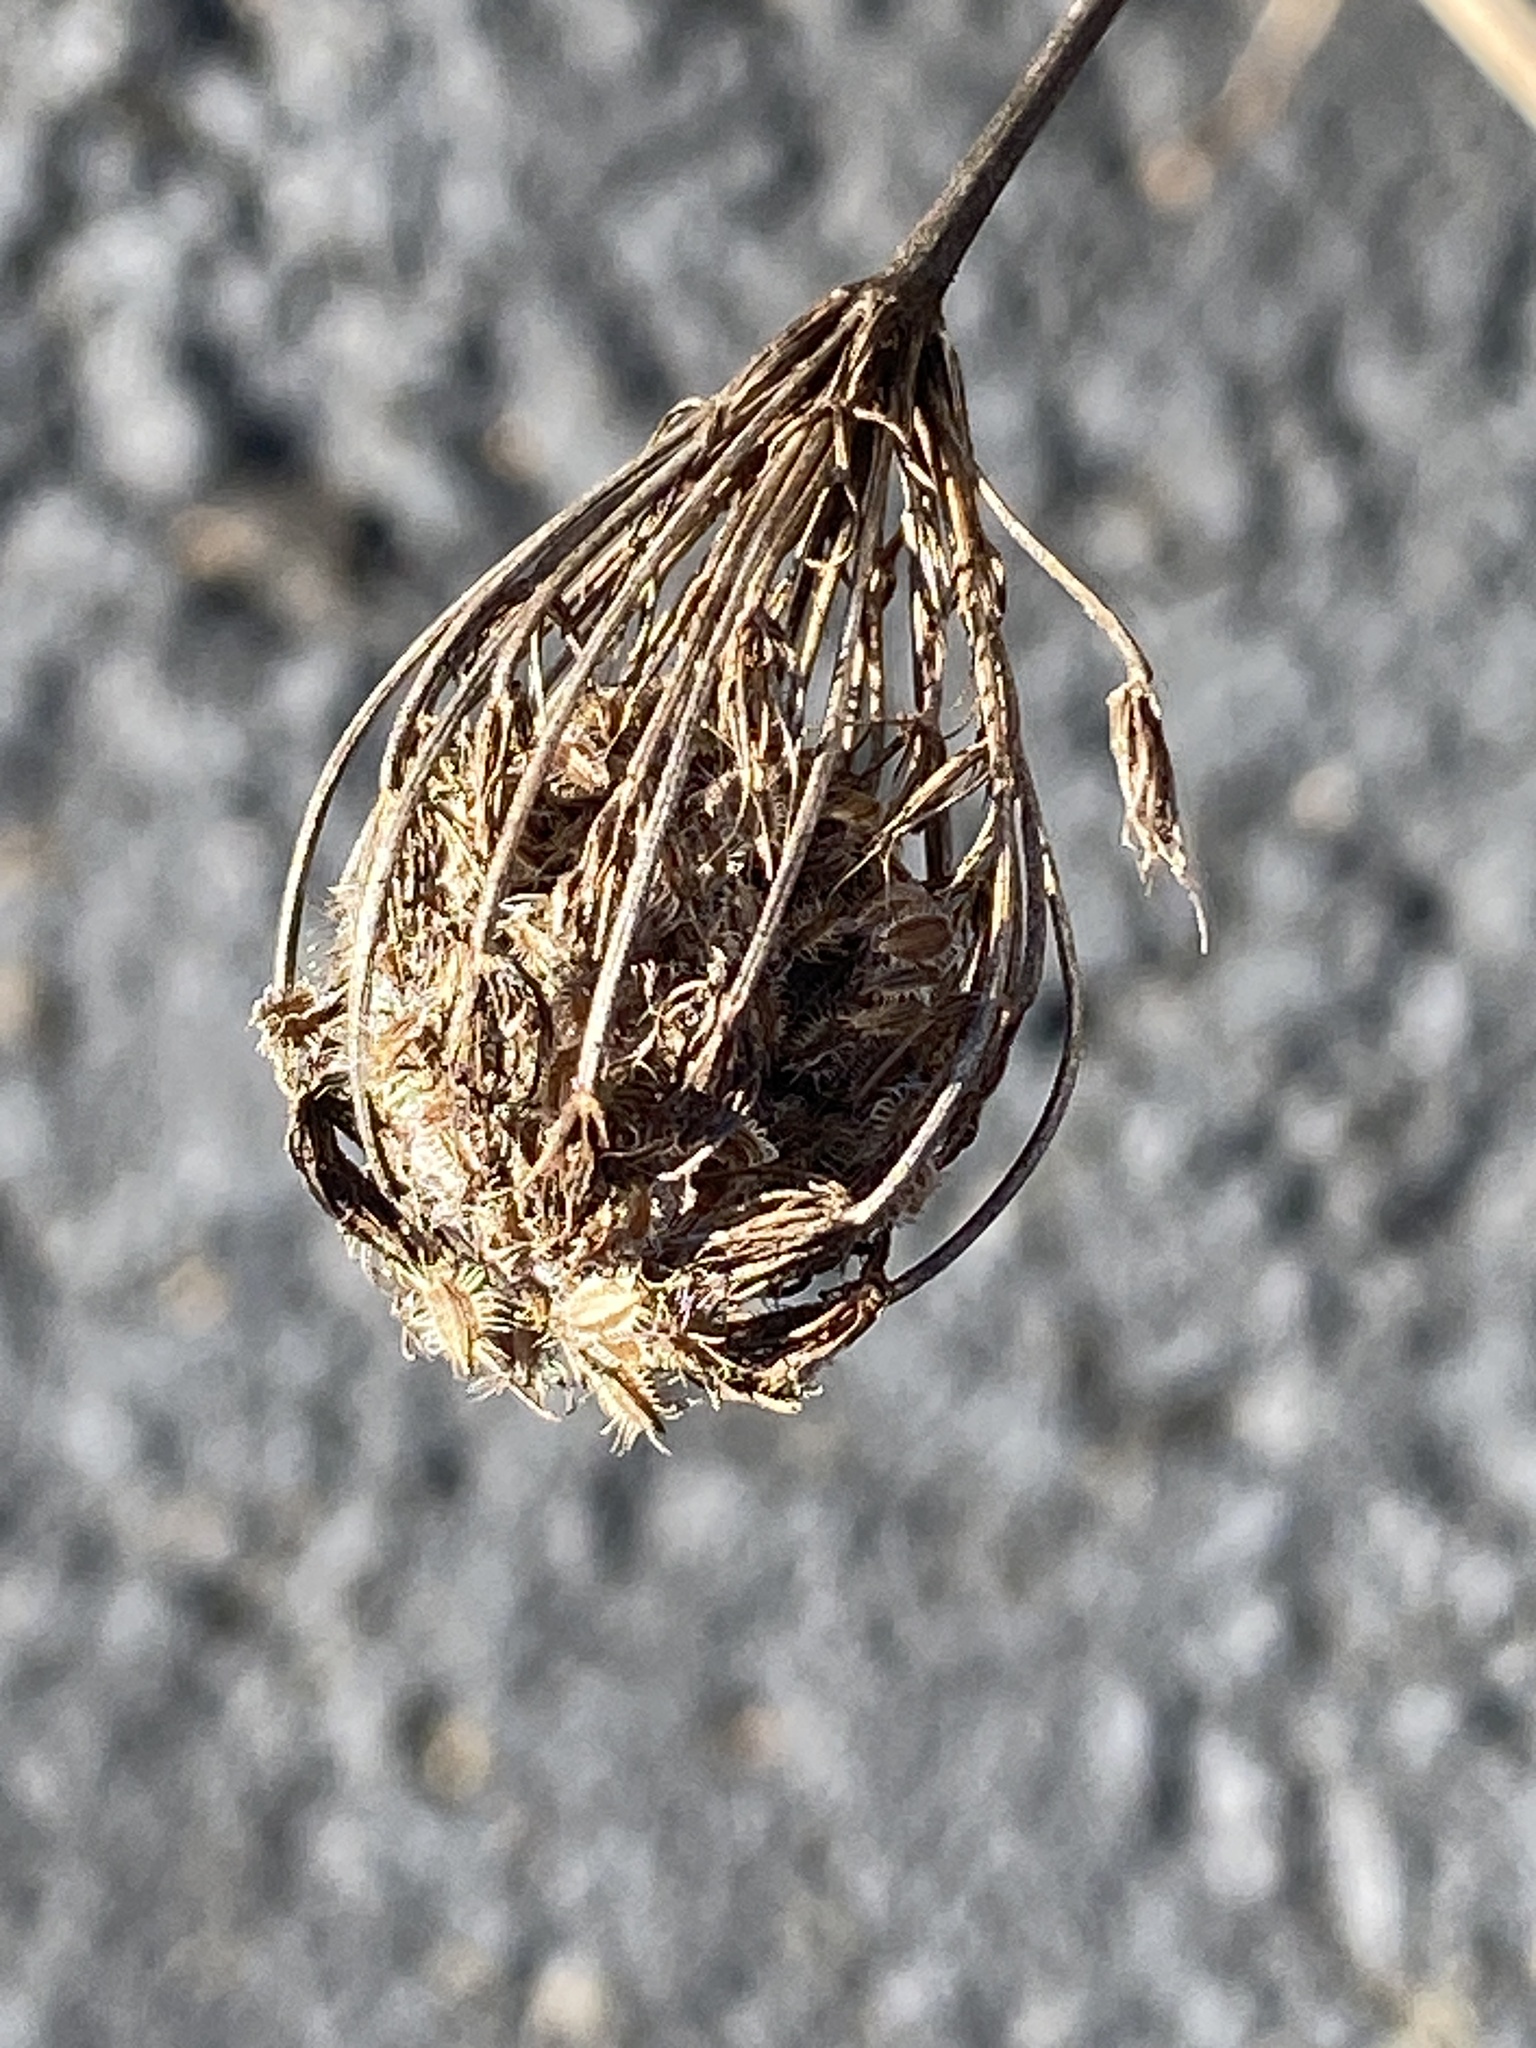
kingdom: Plantae
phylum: Tracheophyta
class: Magnoliopsida
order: Apiales
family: Apiaceae
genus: Daucus
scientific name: Daucus carota
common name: Wild carrot
